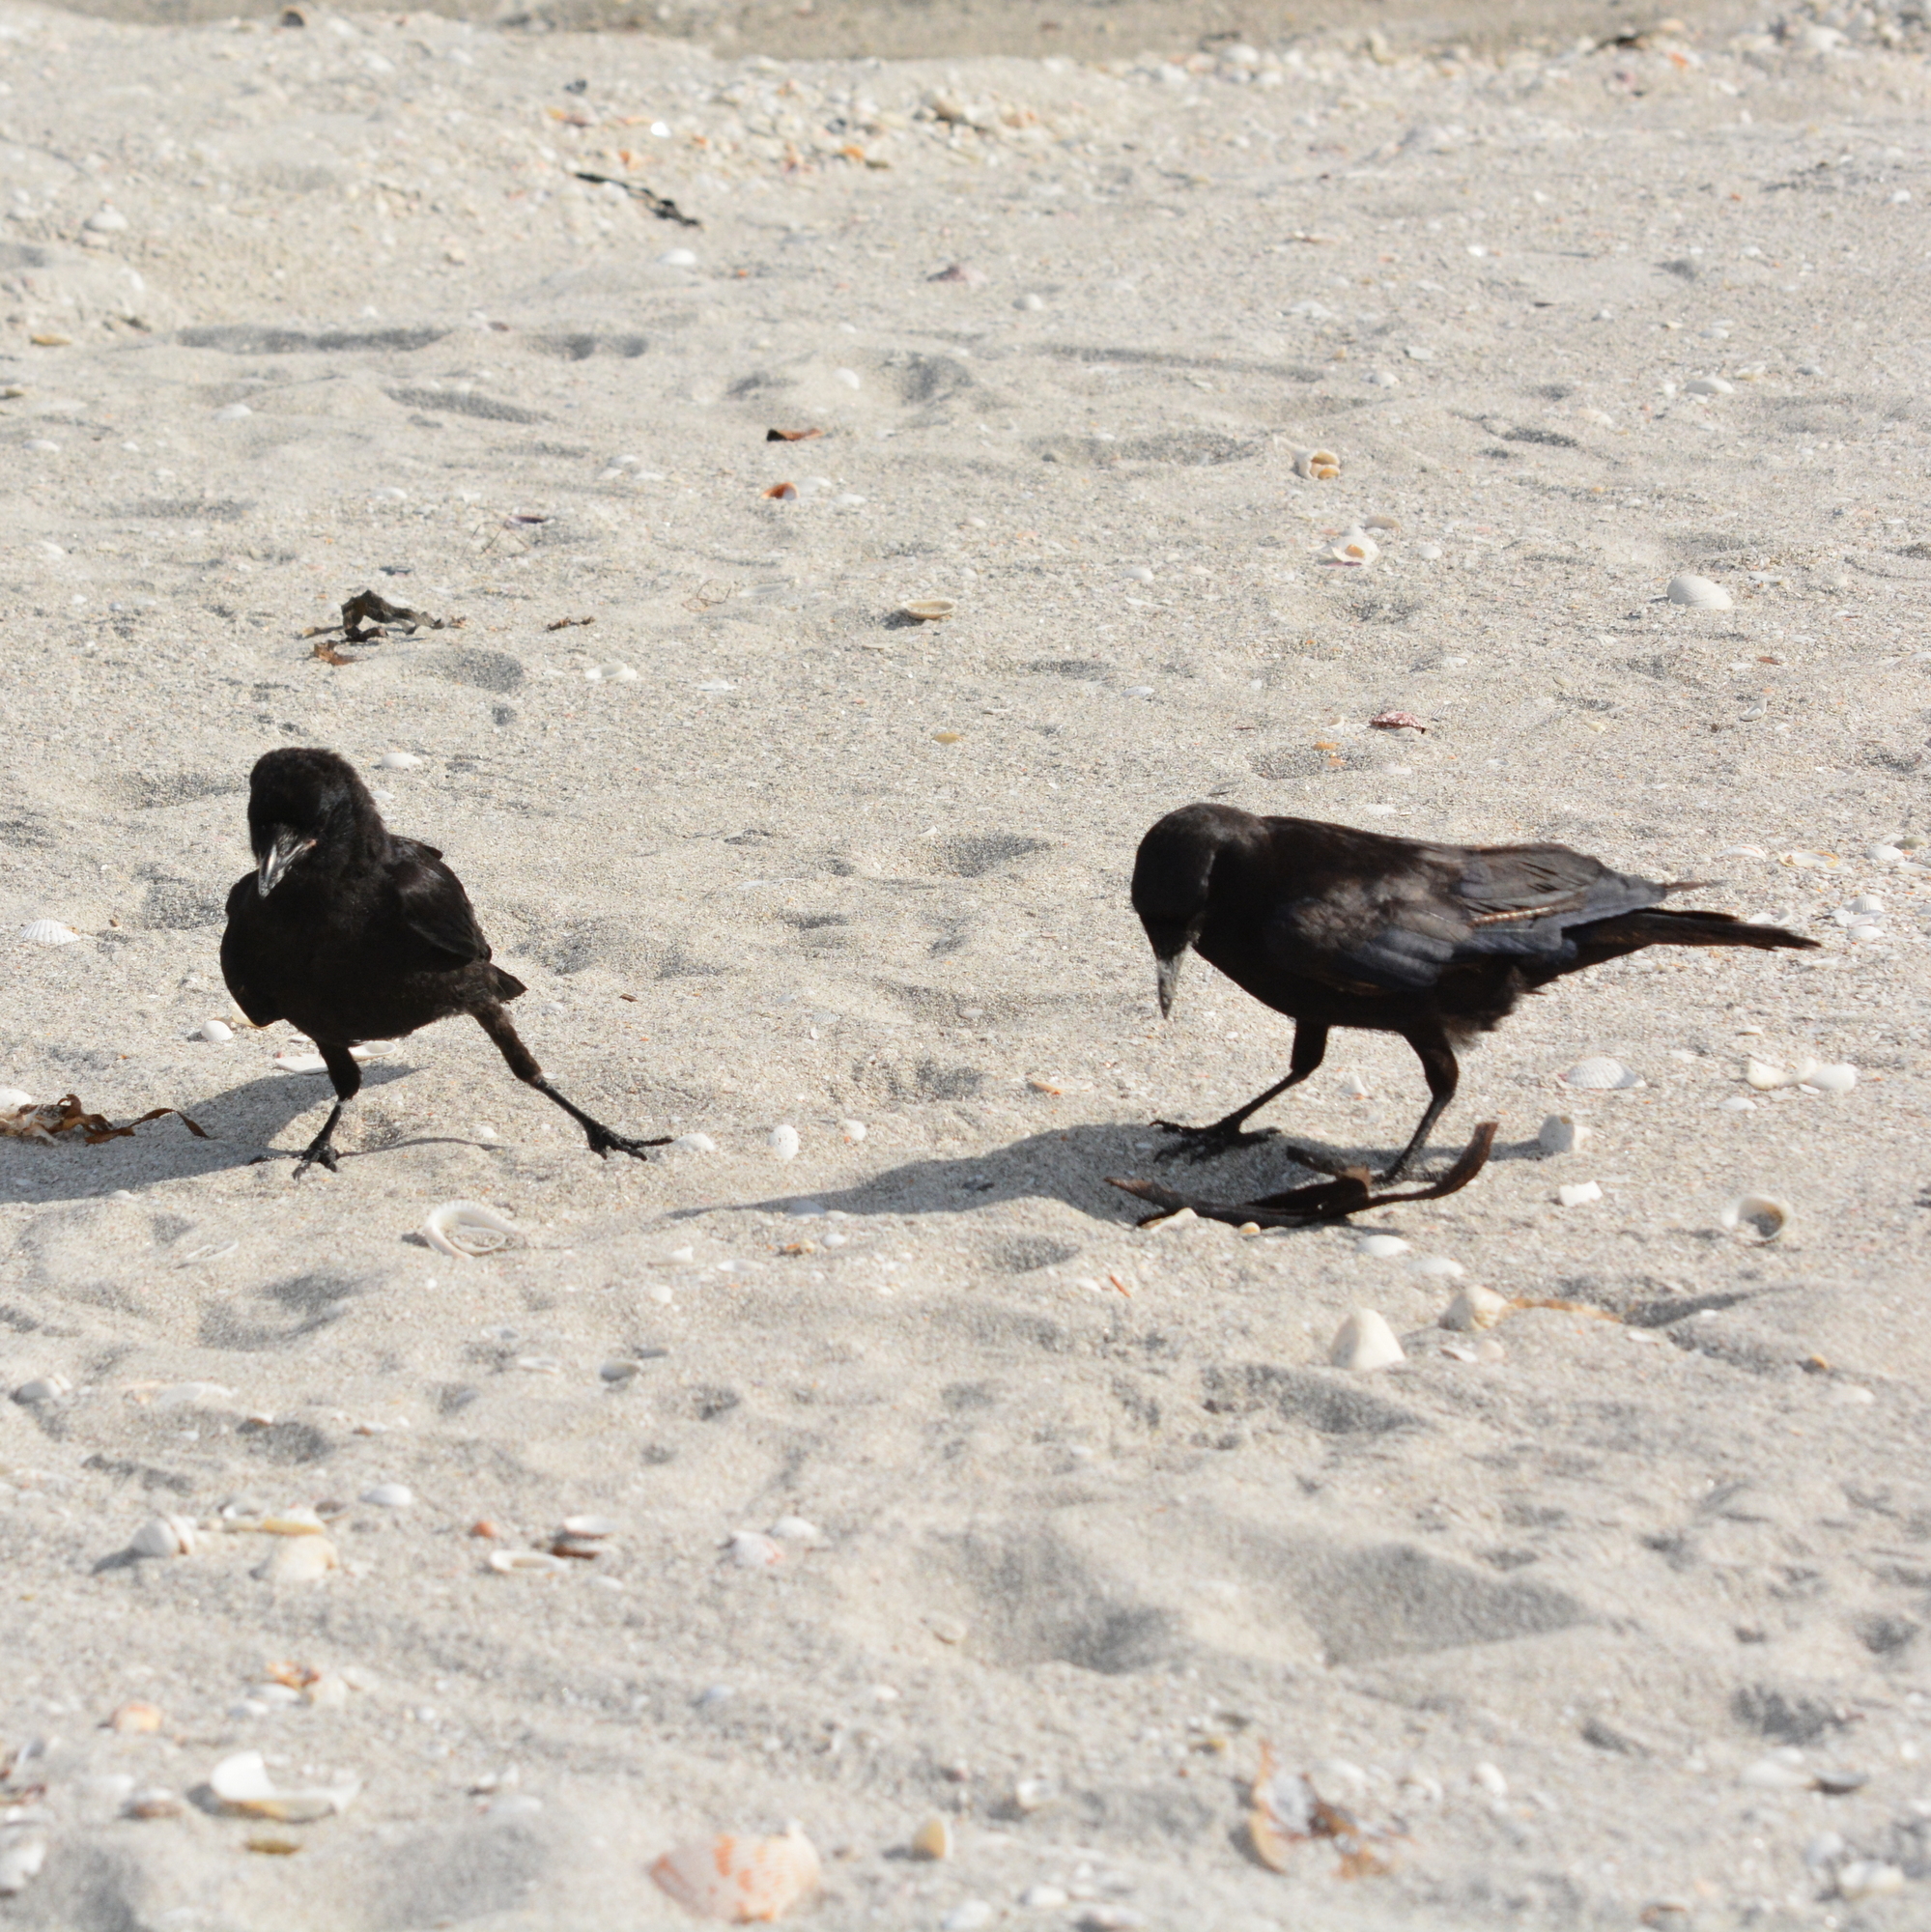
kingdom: Animalia
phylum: Chordata
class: Aves
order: Passeriformes
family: Corvidae
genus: Corvus
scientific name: Corvus
